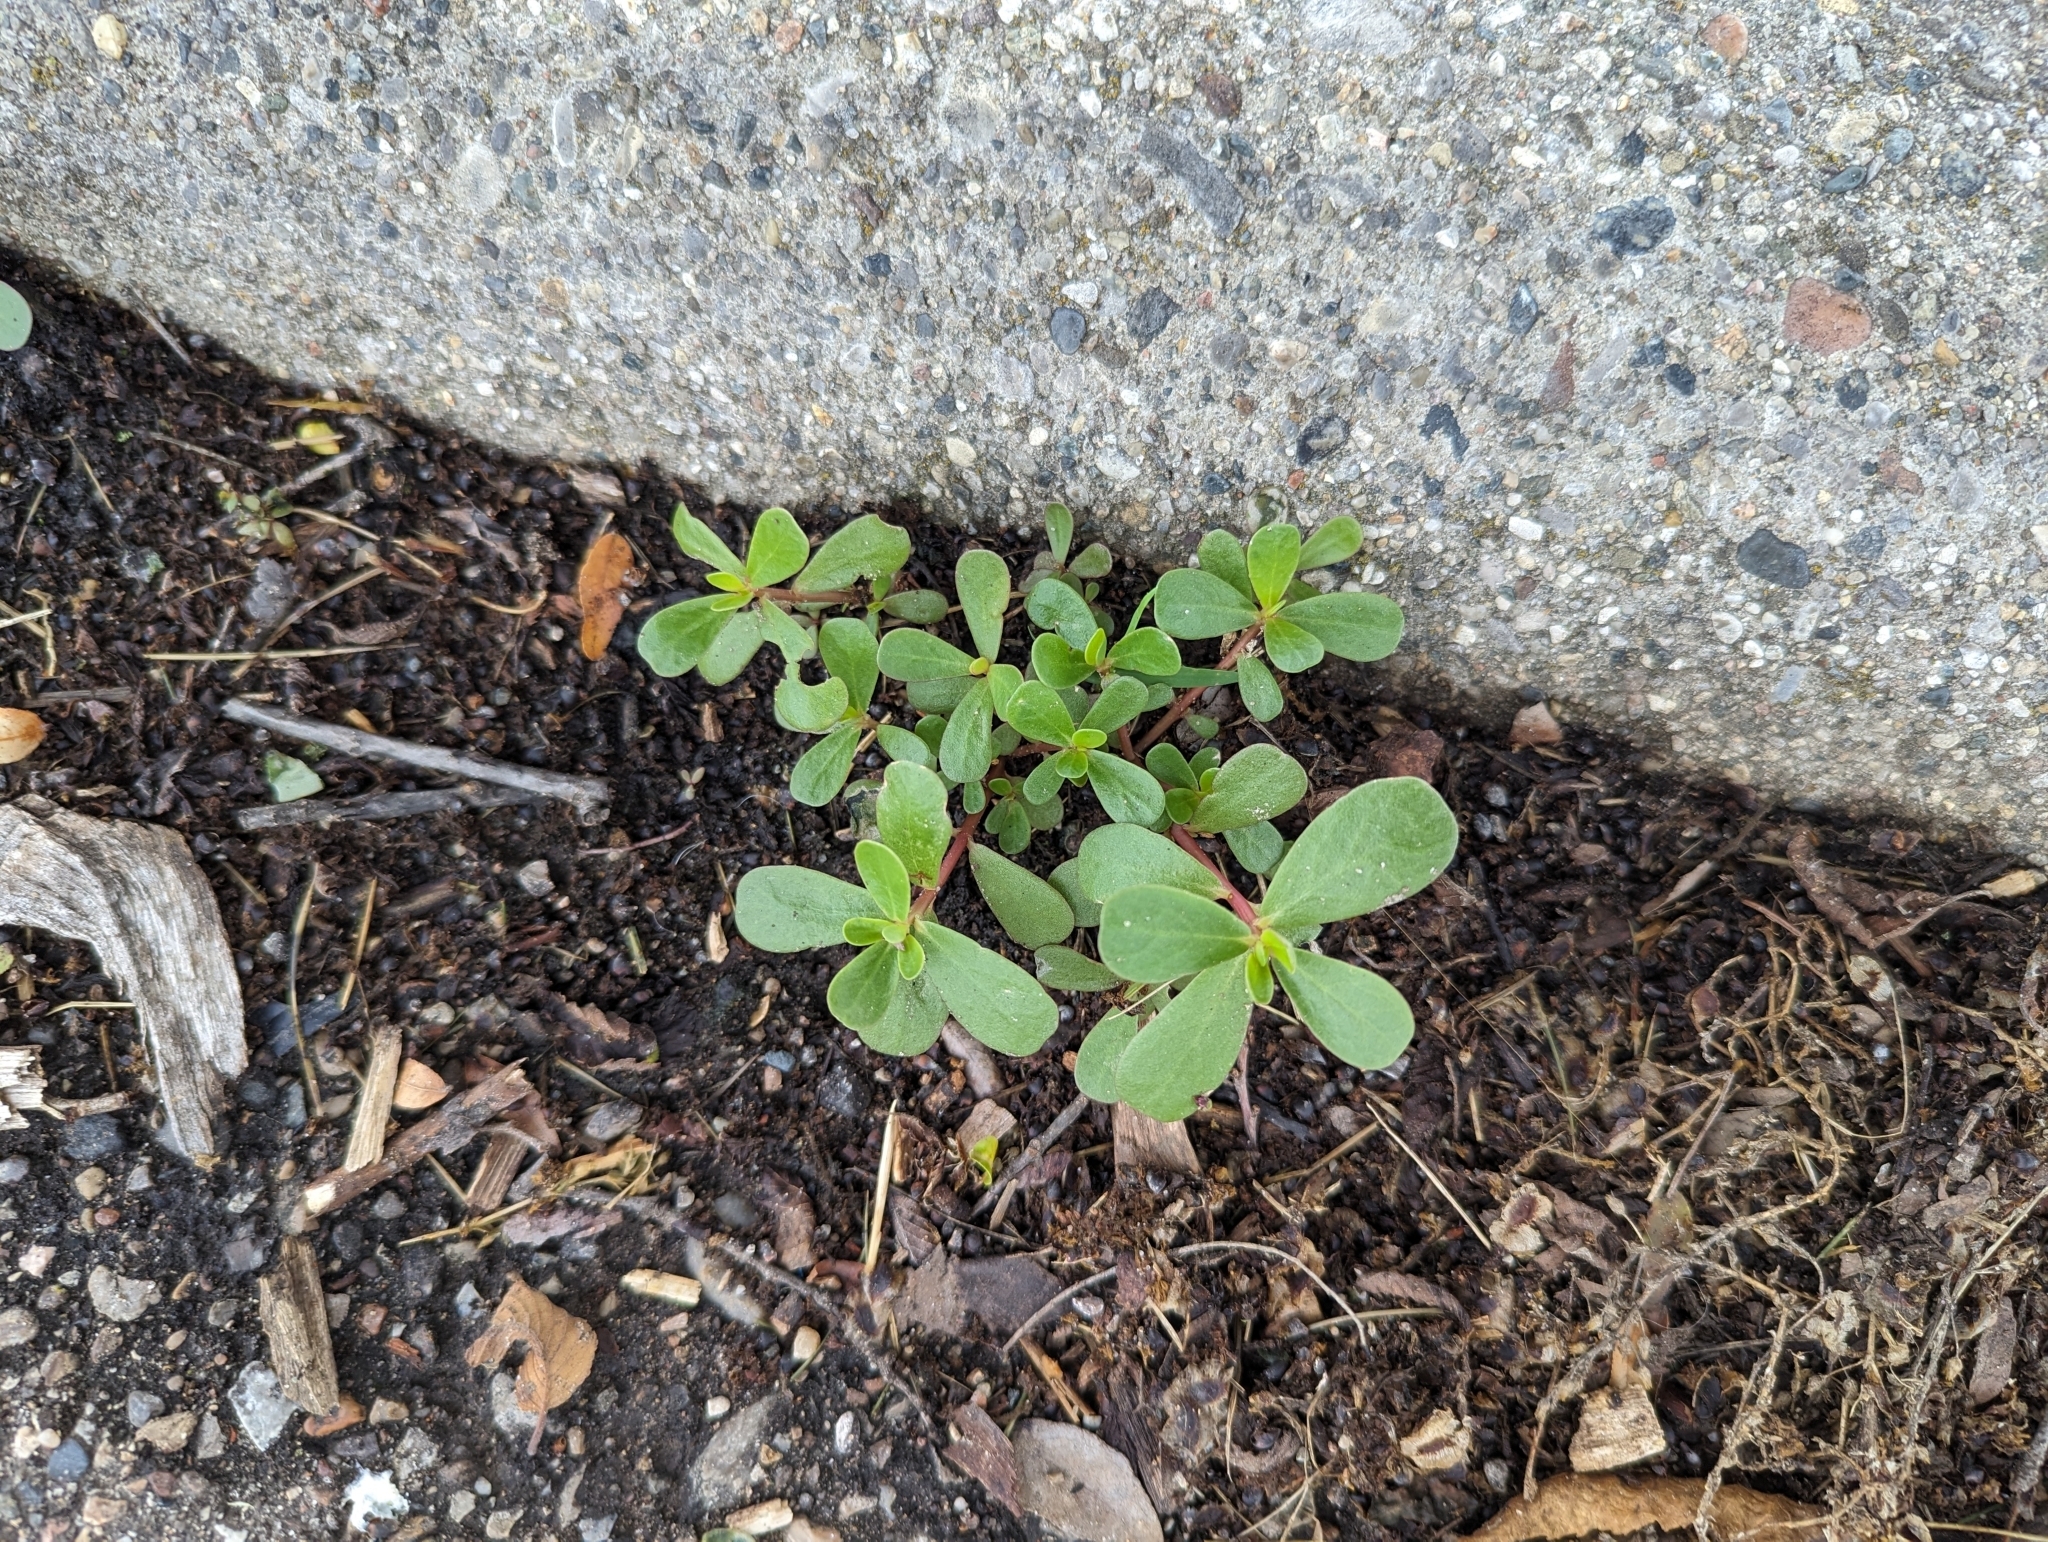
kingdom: Plantae
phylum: Tracheophyta
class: Magnoliopsida
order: Caryophyllales
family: Portulacaceae
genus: Portulaca
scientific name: Portulaca oleracea
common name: Common purslane
